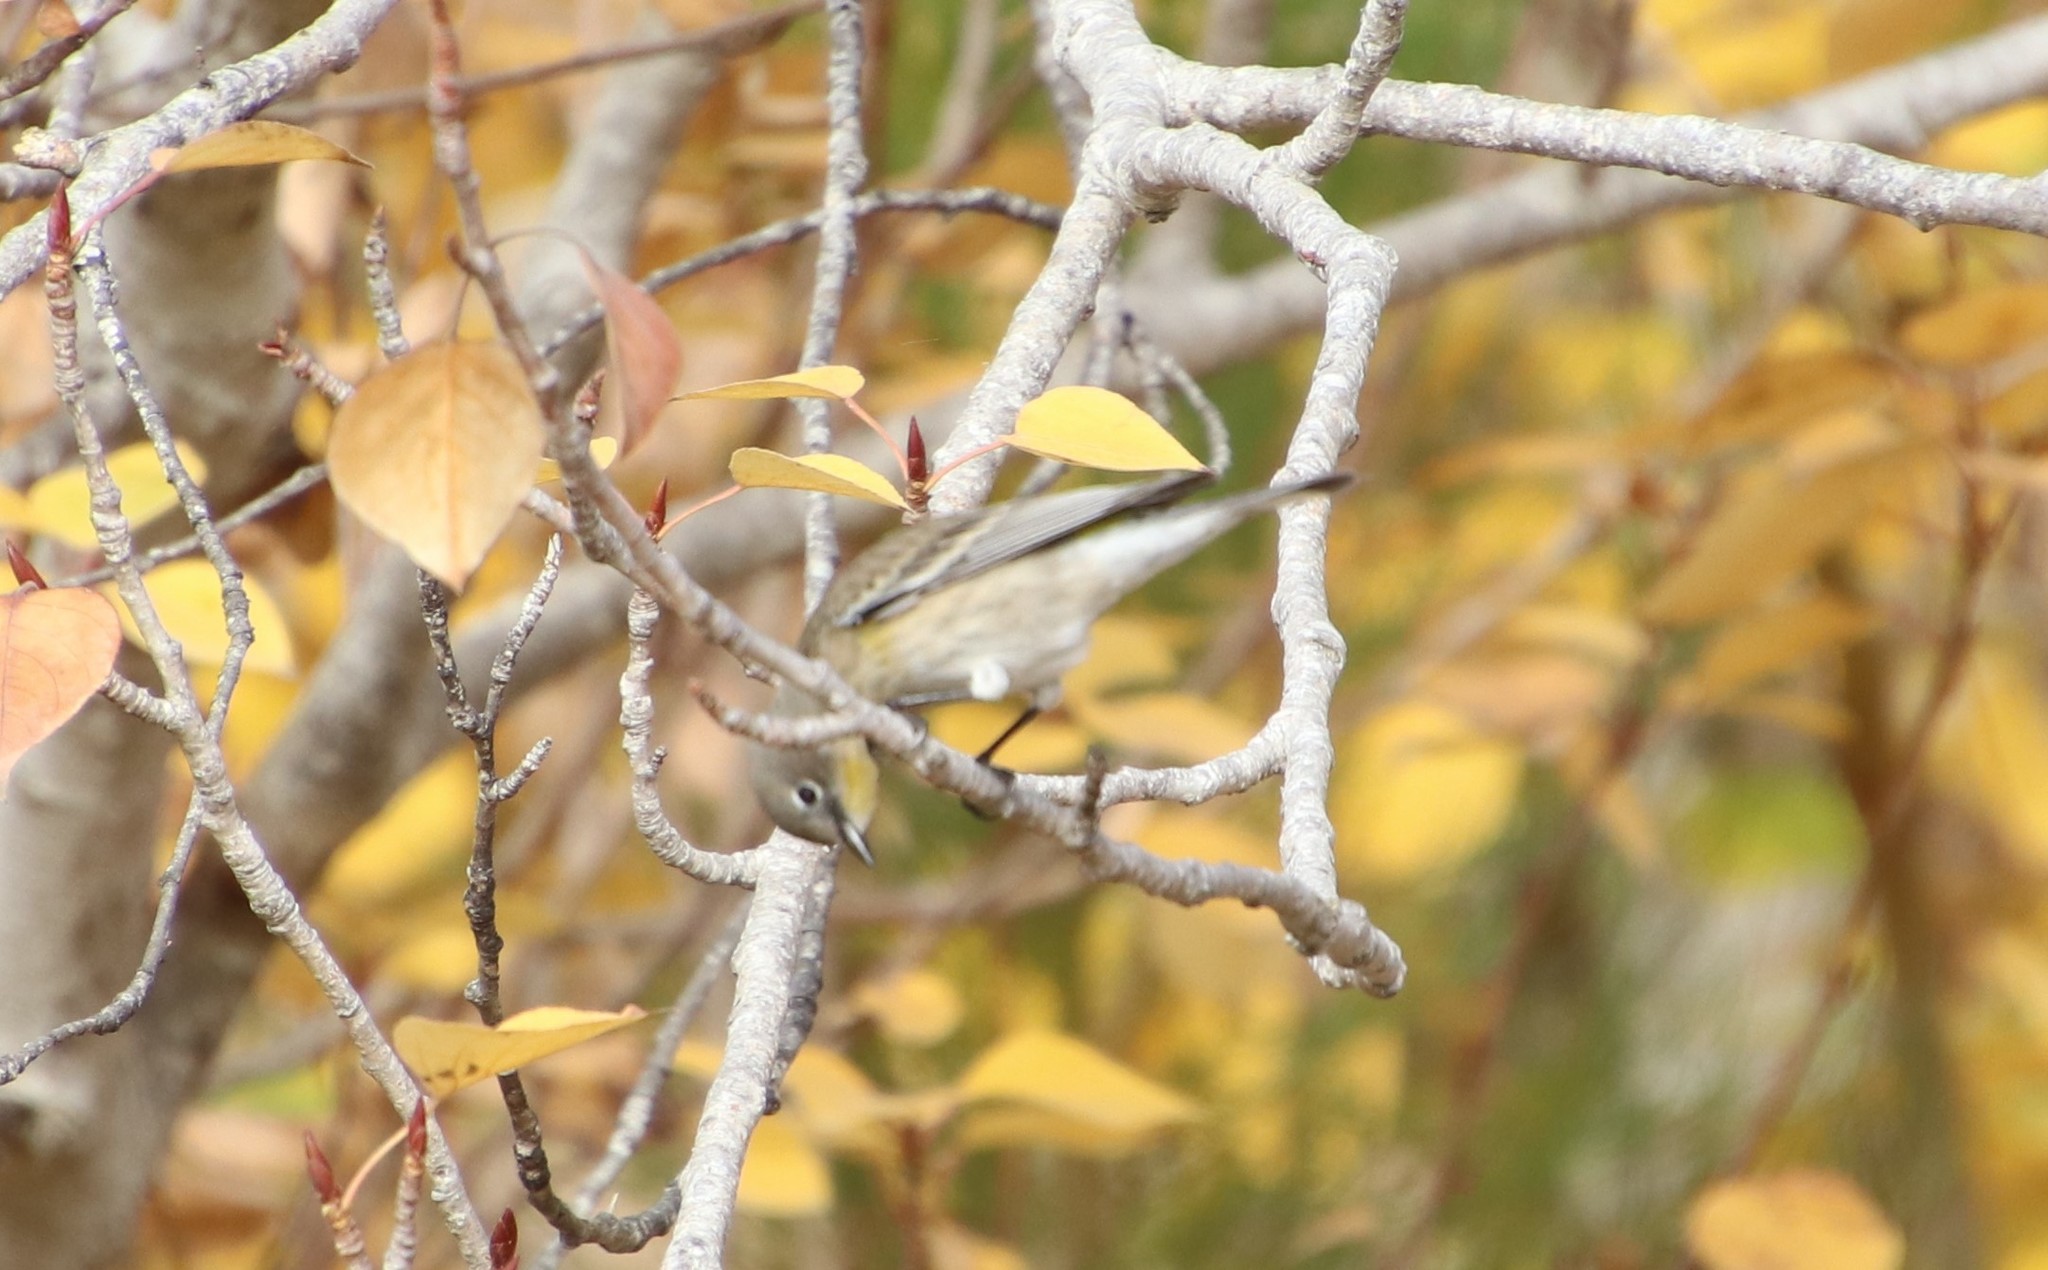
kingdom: Animalia
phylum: Chordata
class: Aves
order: Passeriformes
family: Parulidae
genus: Setophaga
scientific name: Setophaga auduboni
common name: Audubon's warbler
